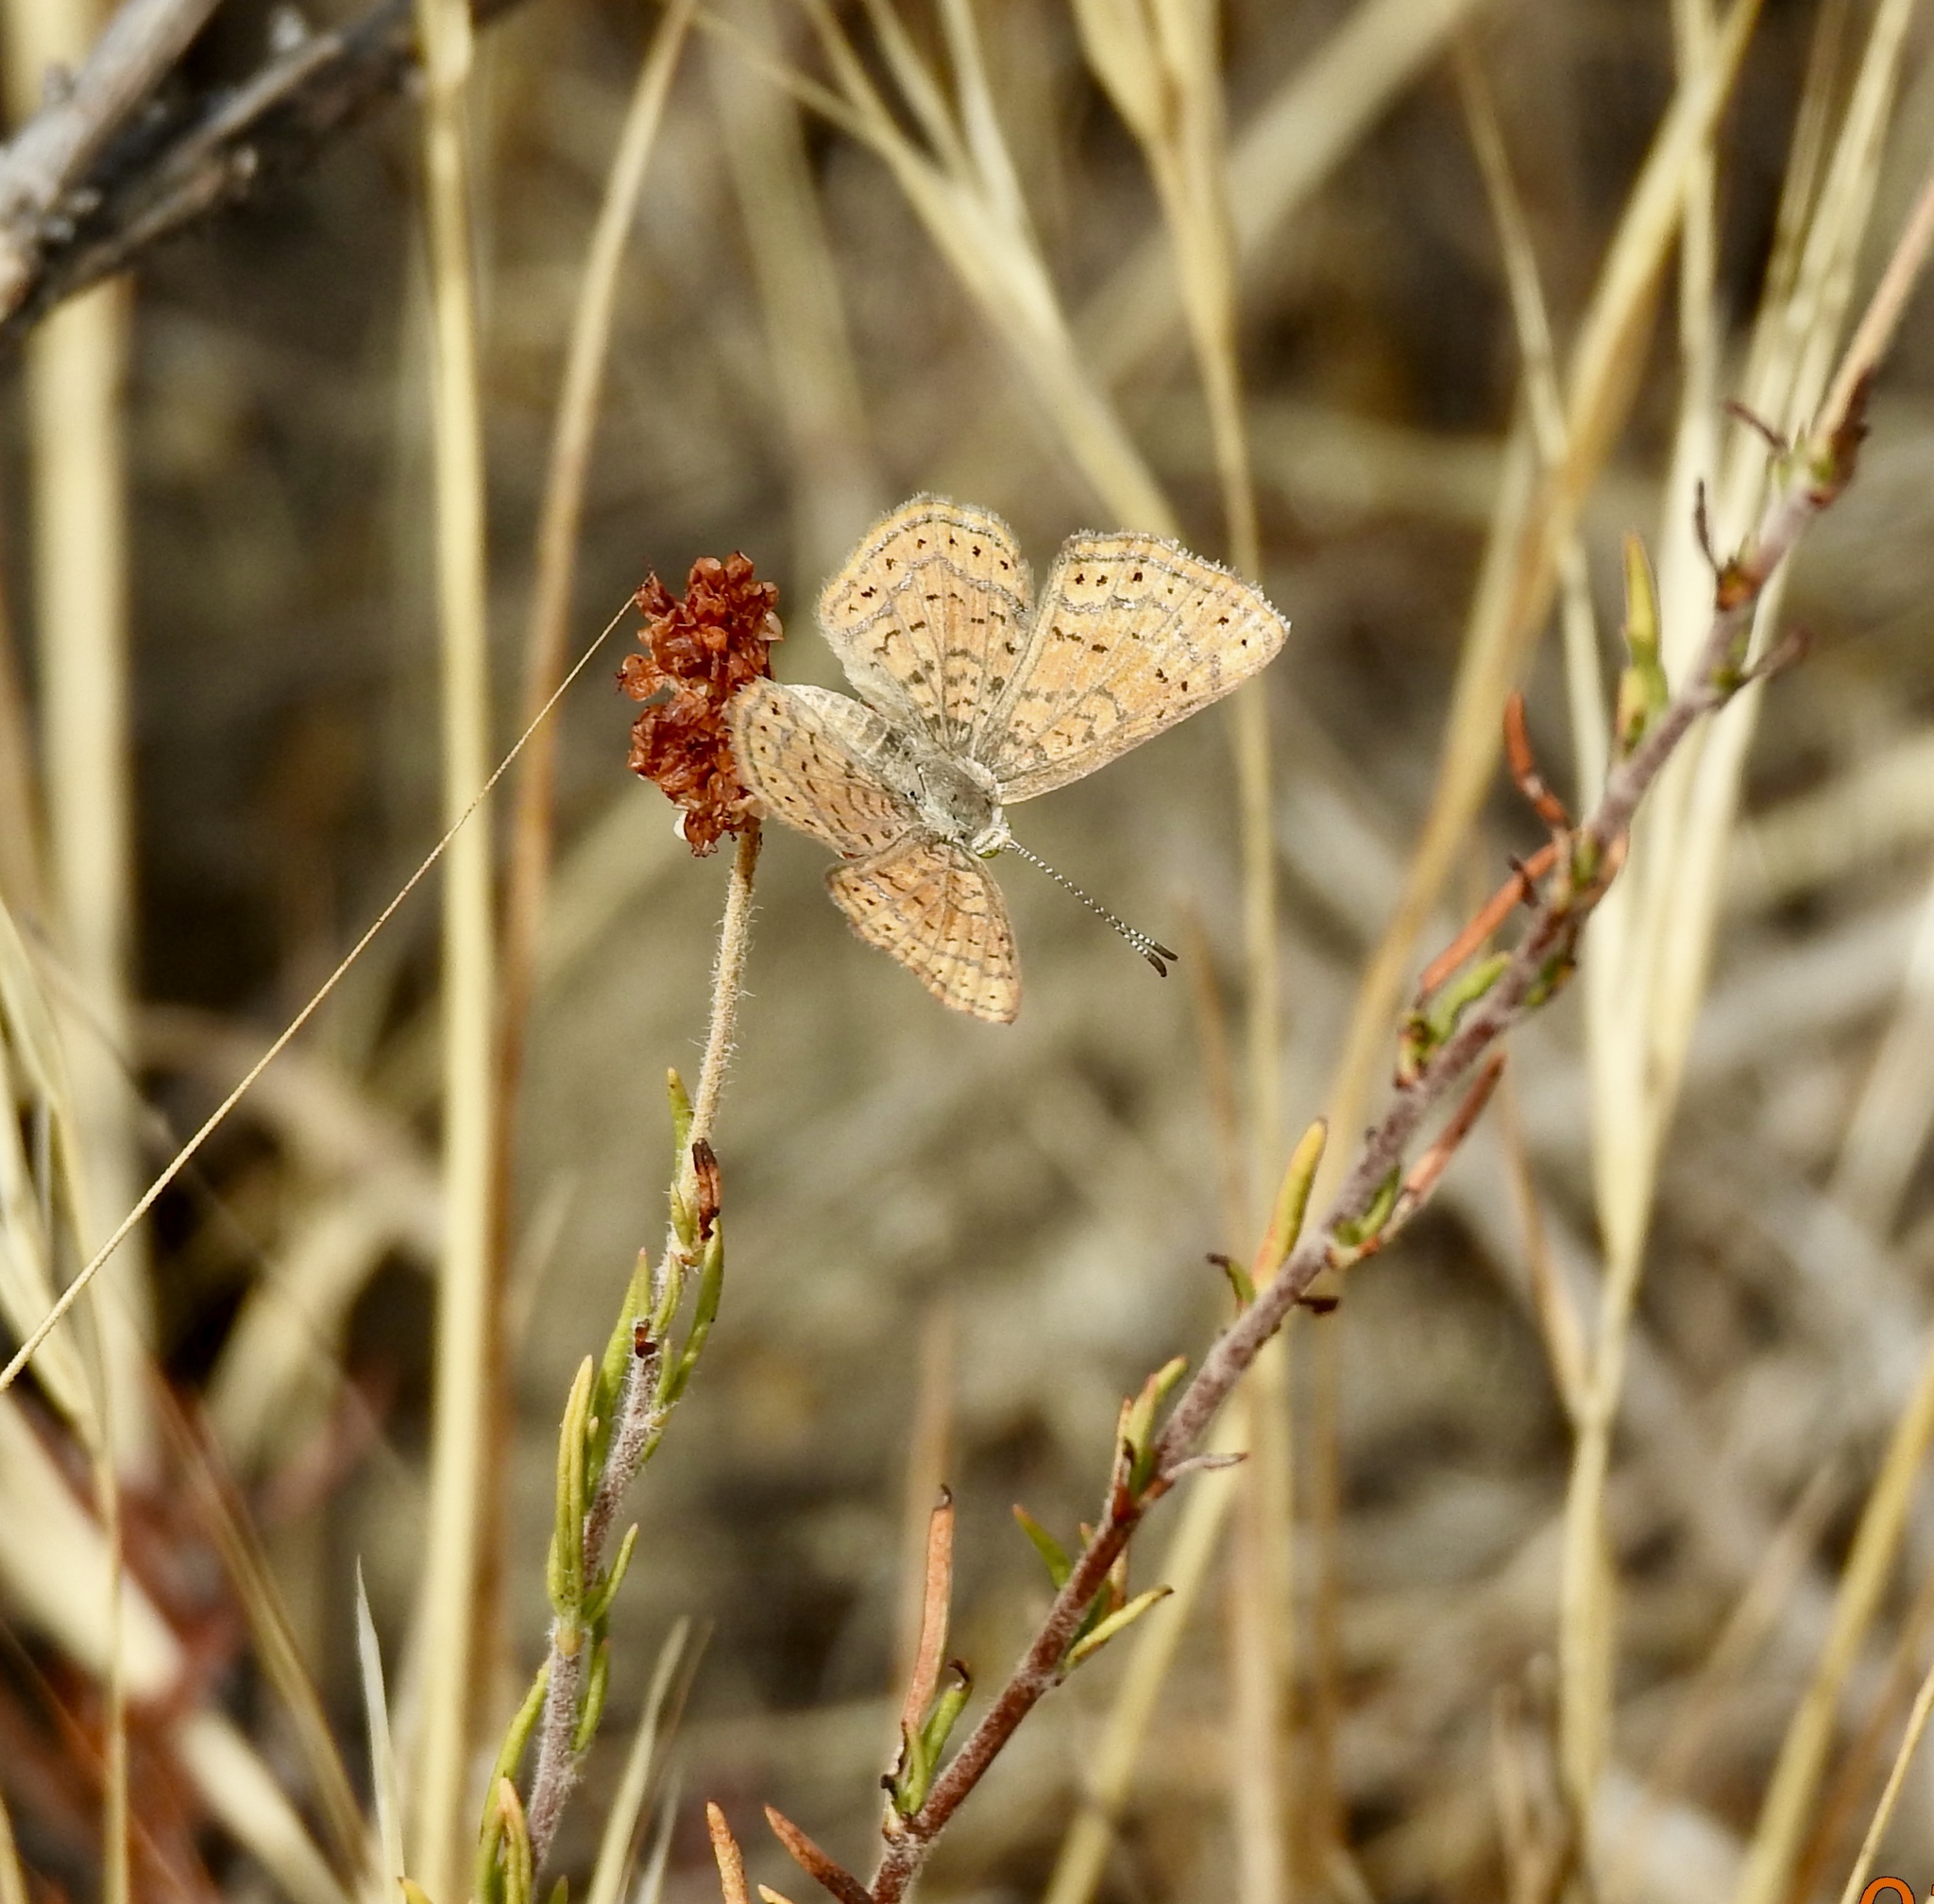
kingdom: Animalia
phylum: Arthropoda
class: Insecta
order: Lepidoptera
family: Lycaenidae
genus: Emesis
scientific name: Emesis wrighti
